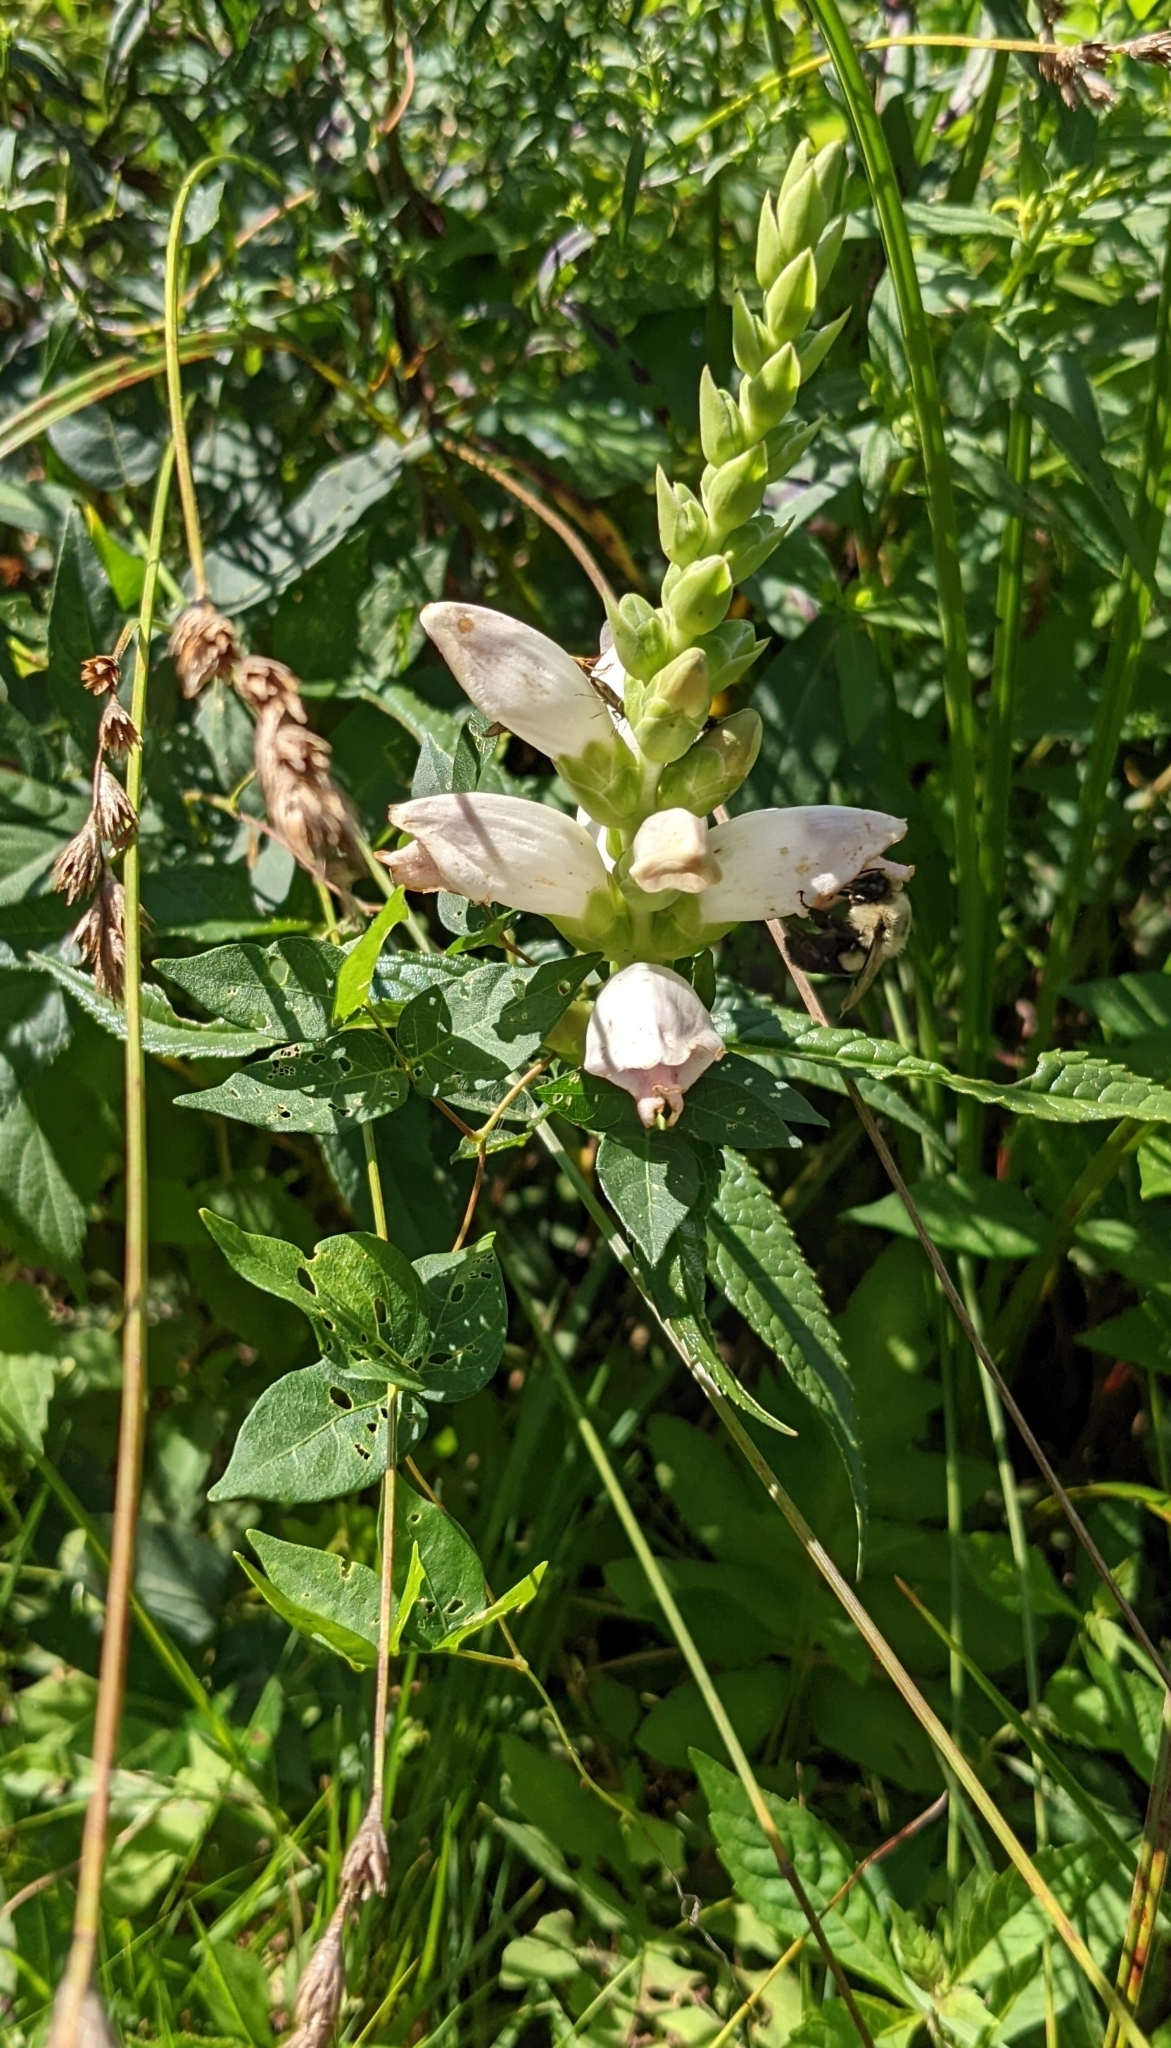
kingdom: Plantae
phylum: Tracheophyta
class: Magnoliopsida
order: Lamiales
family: Plantaginaceae
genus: Chelone
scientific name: Chelone glabra
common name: Snakehead
